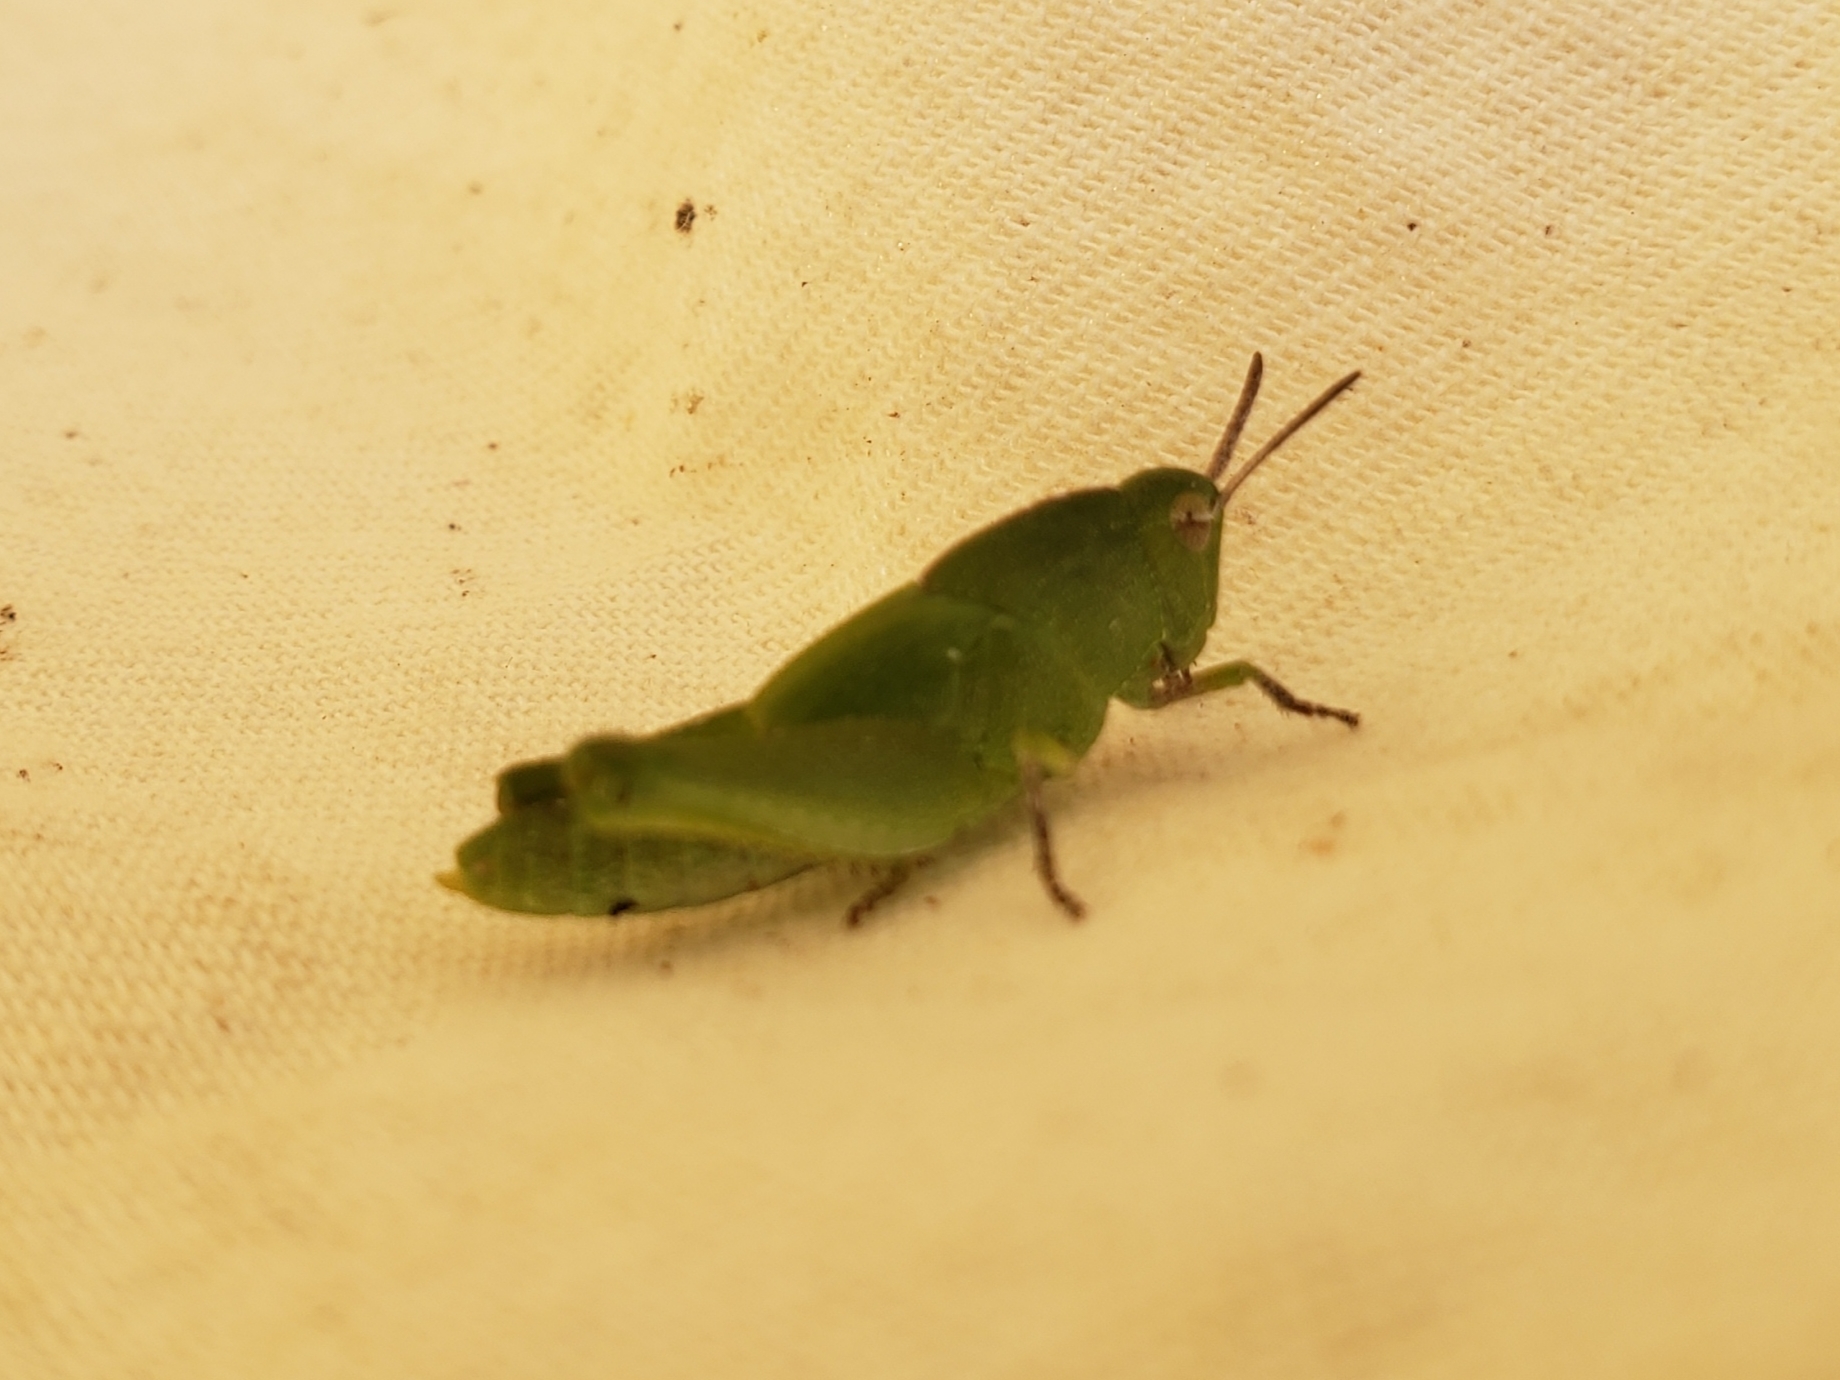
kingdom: Animalia
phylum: Arthropoda
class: Insecta
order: Orthoptera
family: Acrididae
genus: Chortophaga
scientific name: Chortophaga australior
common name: Southern green-striped grasshopper
